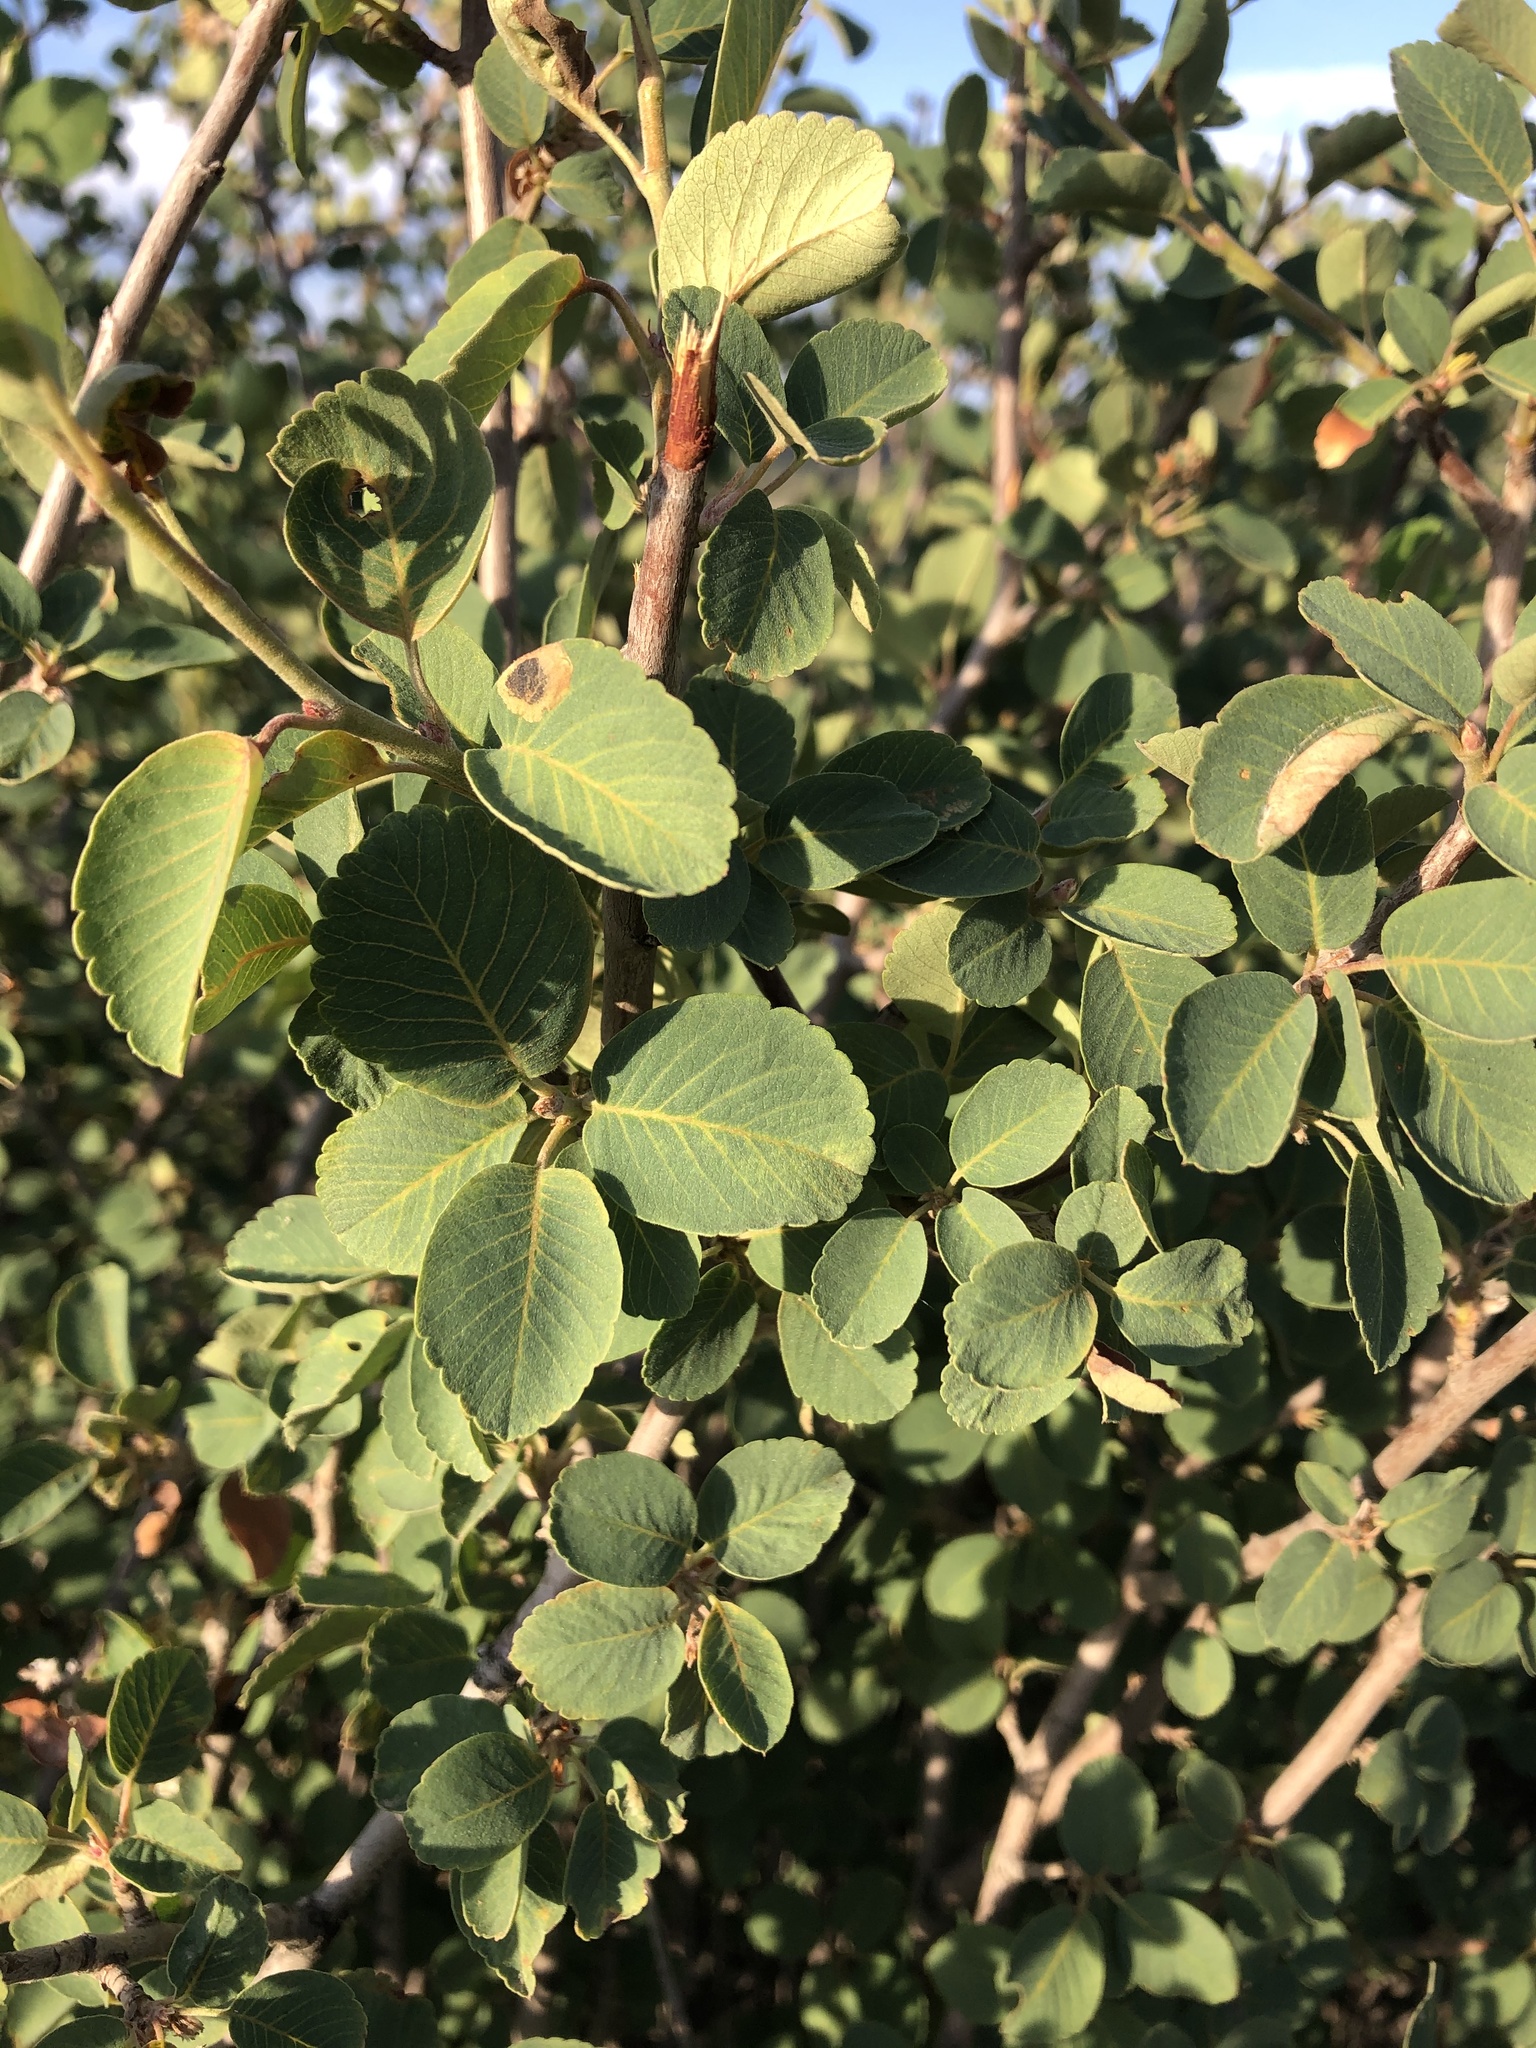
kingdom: Plantae
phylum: Tracheophyta
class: Magnoliopsida
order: Rosales
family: Rosaceae
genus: Amelanchier
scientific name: Amelanchier utahensis
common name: Utah serviceberry
